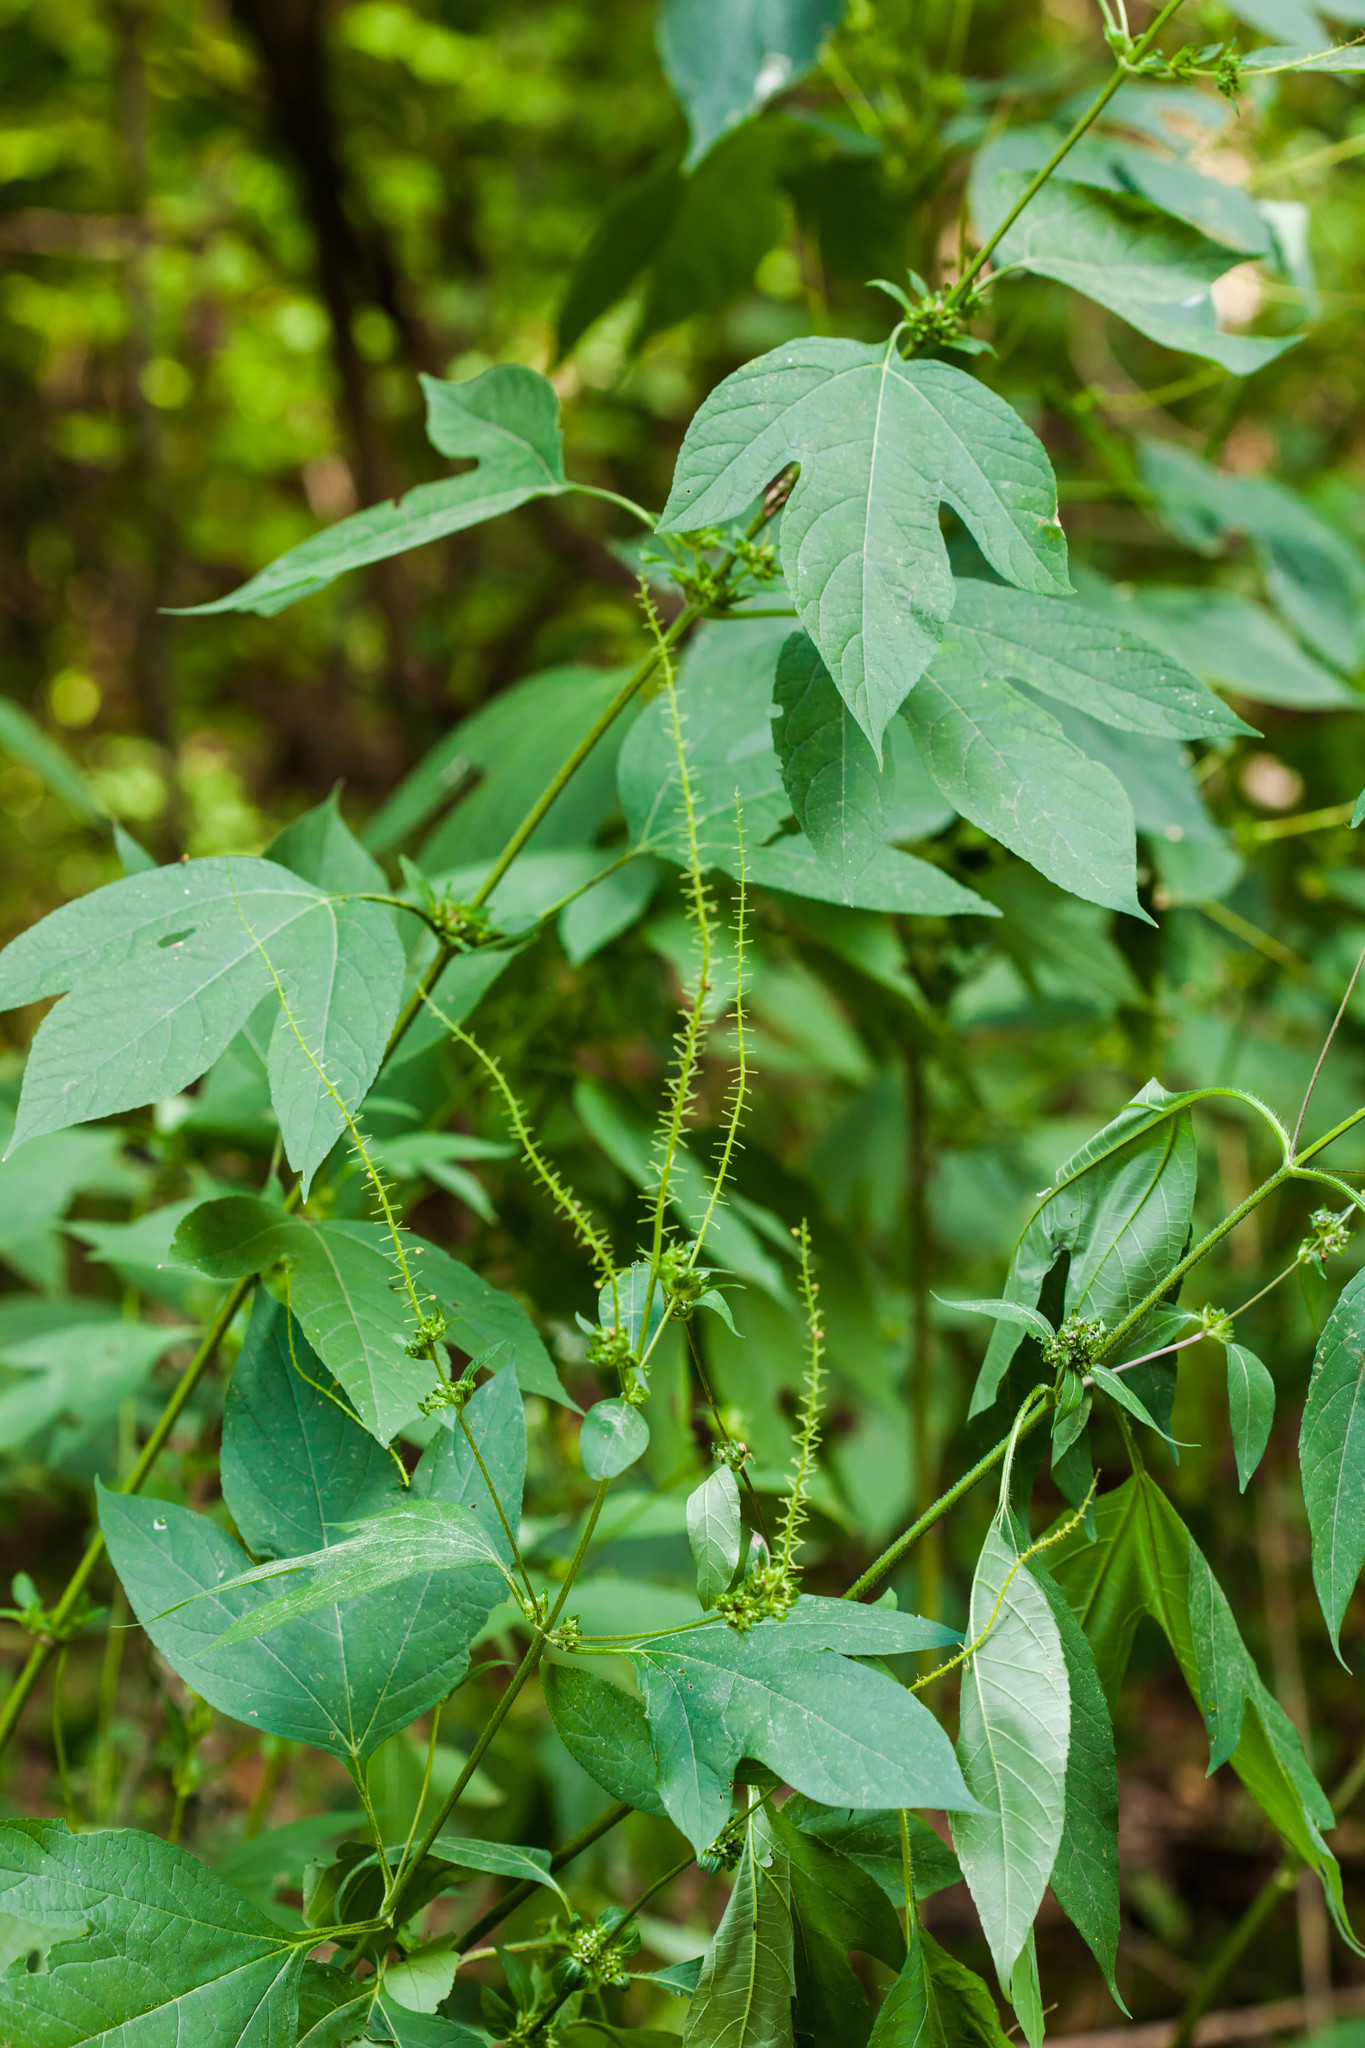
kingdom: Plantae
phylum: Tracheophyta
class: Magnoliopsida
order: Asterales
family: Asteraceae
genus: Ambrosia
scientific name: Ambrosia trifida
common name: Giant ragweed
